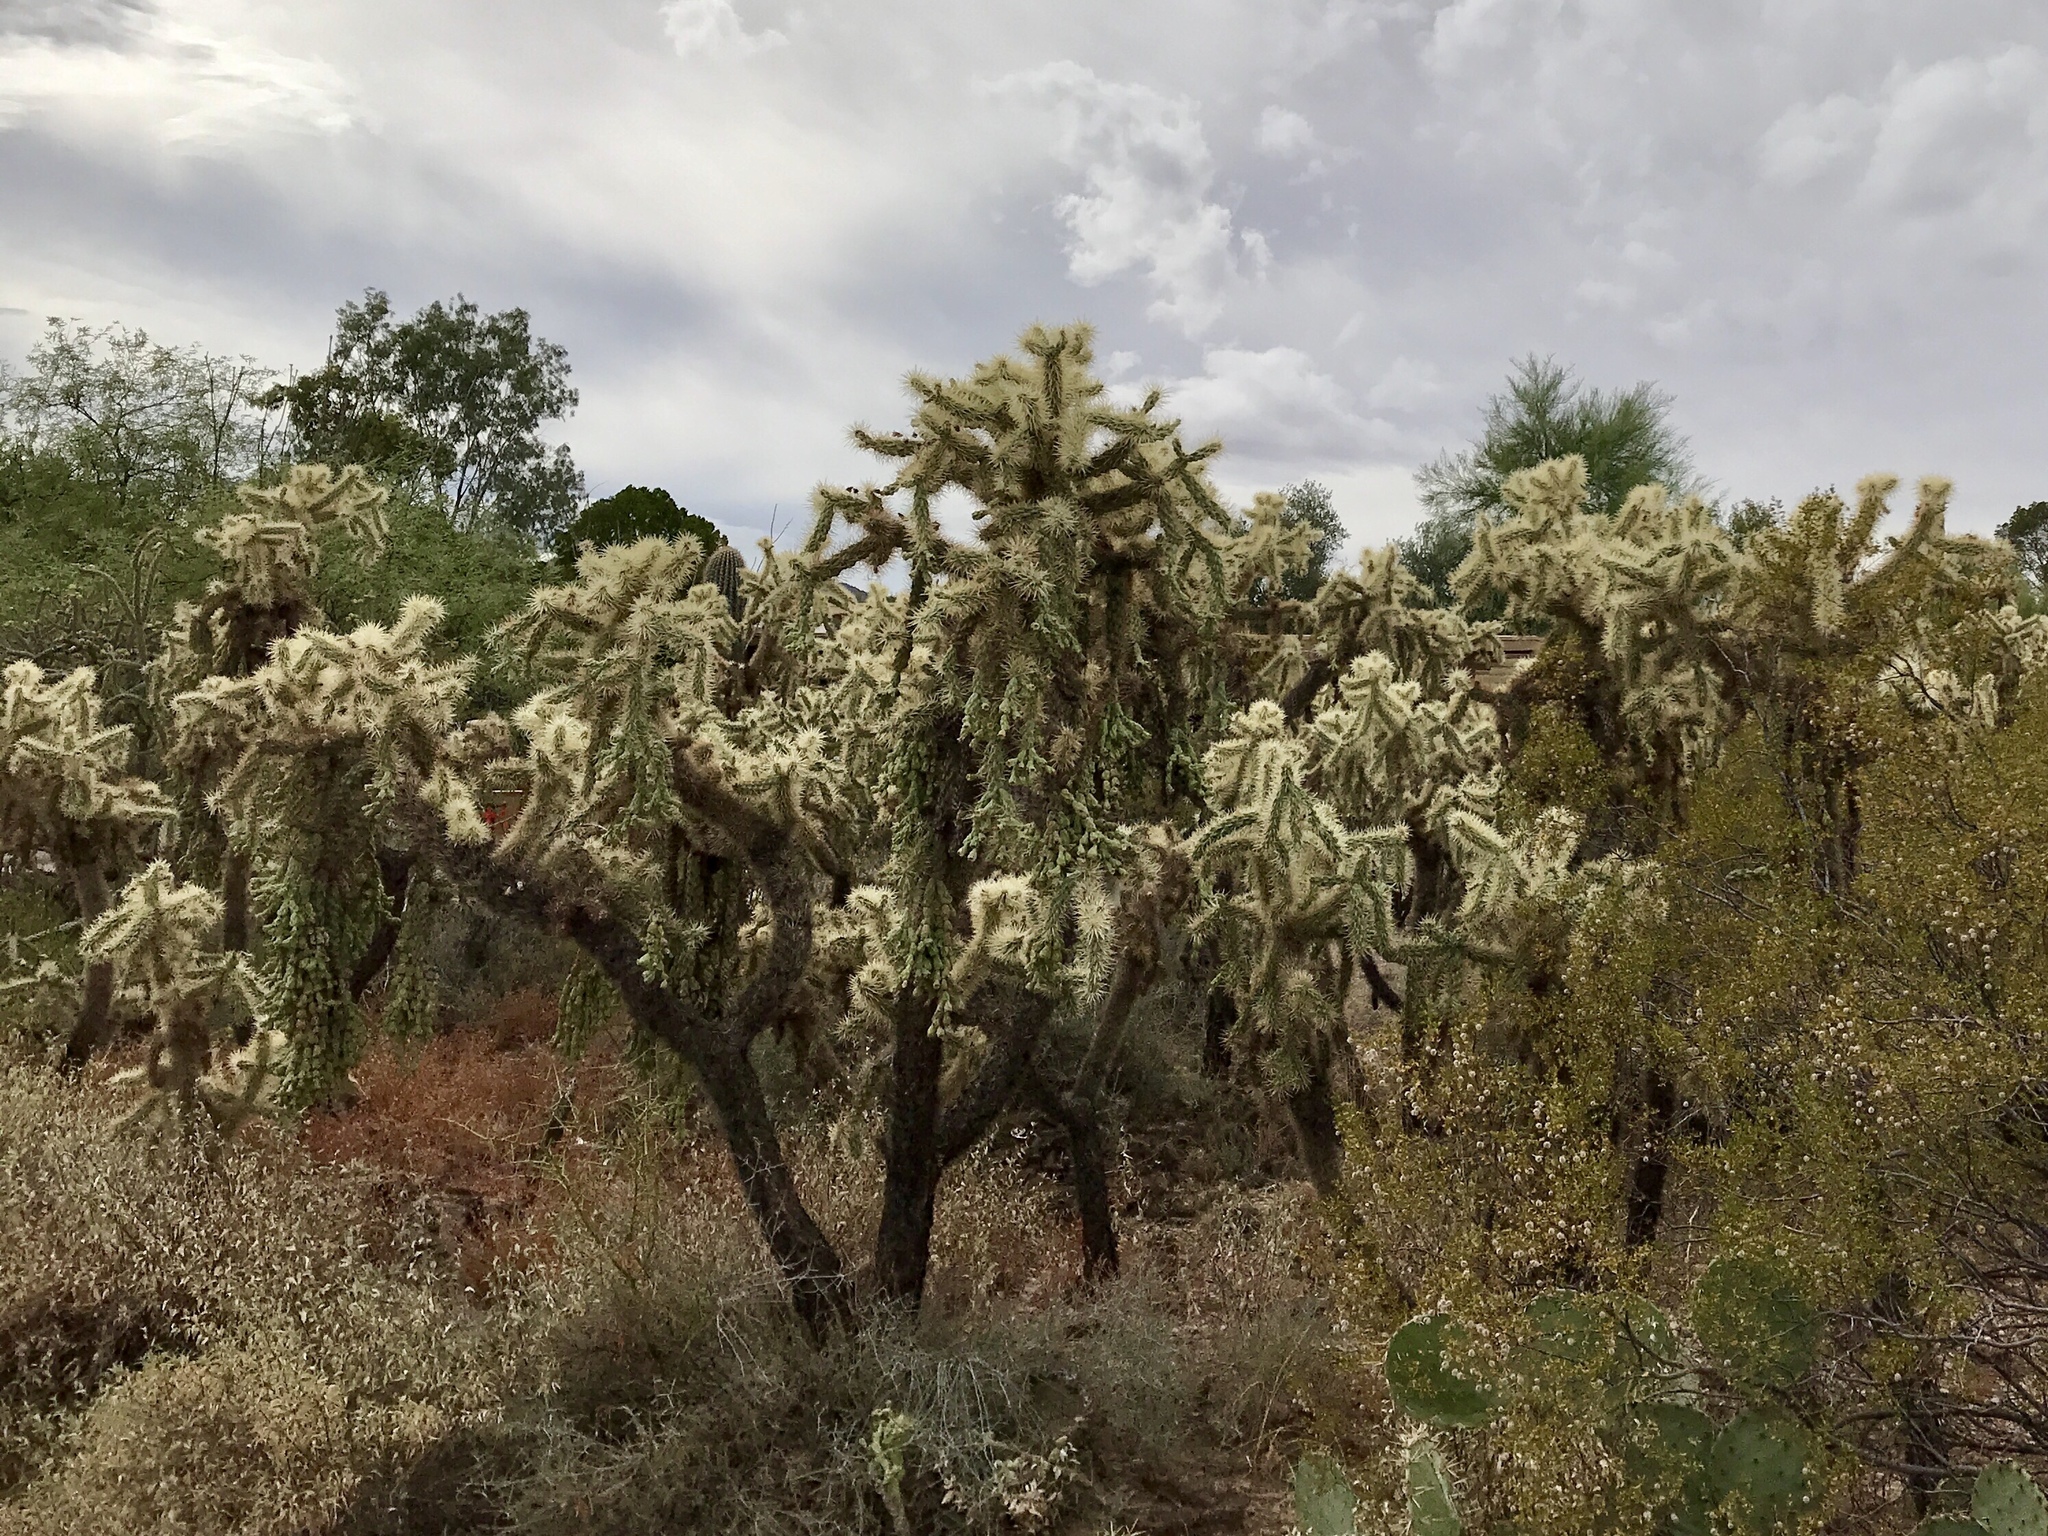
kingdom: Plantae
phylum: Tracheophyta
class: Magnoliopsida
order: Caryophyllales
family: Cactaceae
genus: Cylindropuntia
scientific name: Cylindropuntia fulgida
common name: Jumping cholla
